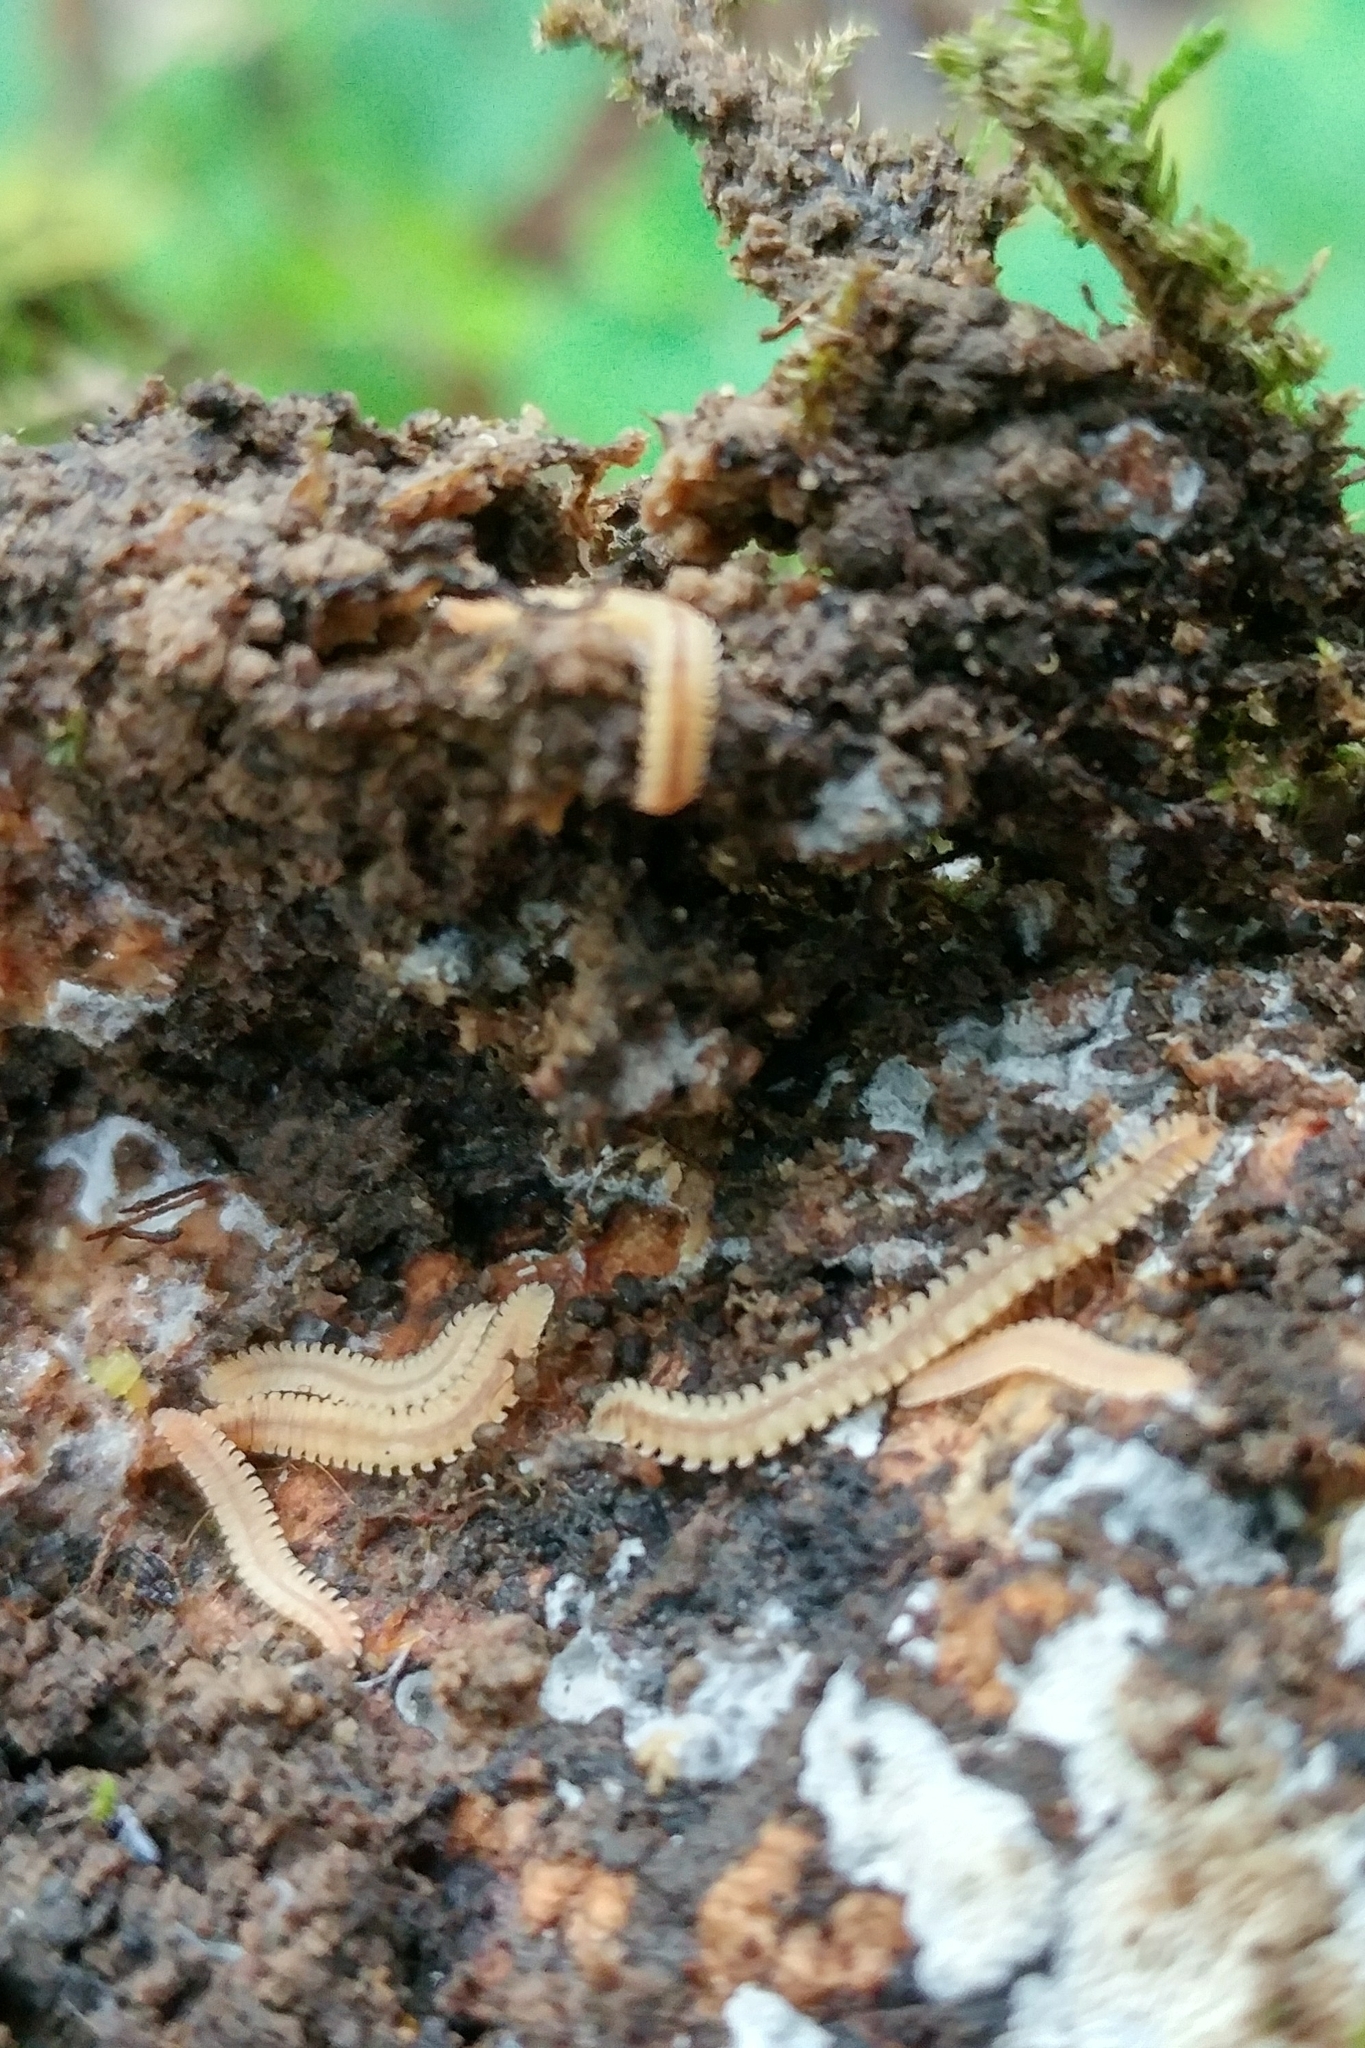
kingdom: Animalia
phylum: Arthropoda
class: Diplopoda
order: Platydesmida
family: Andrognathidae
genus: Gosodesmus
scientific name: Gosodesmus claremontus
